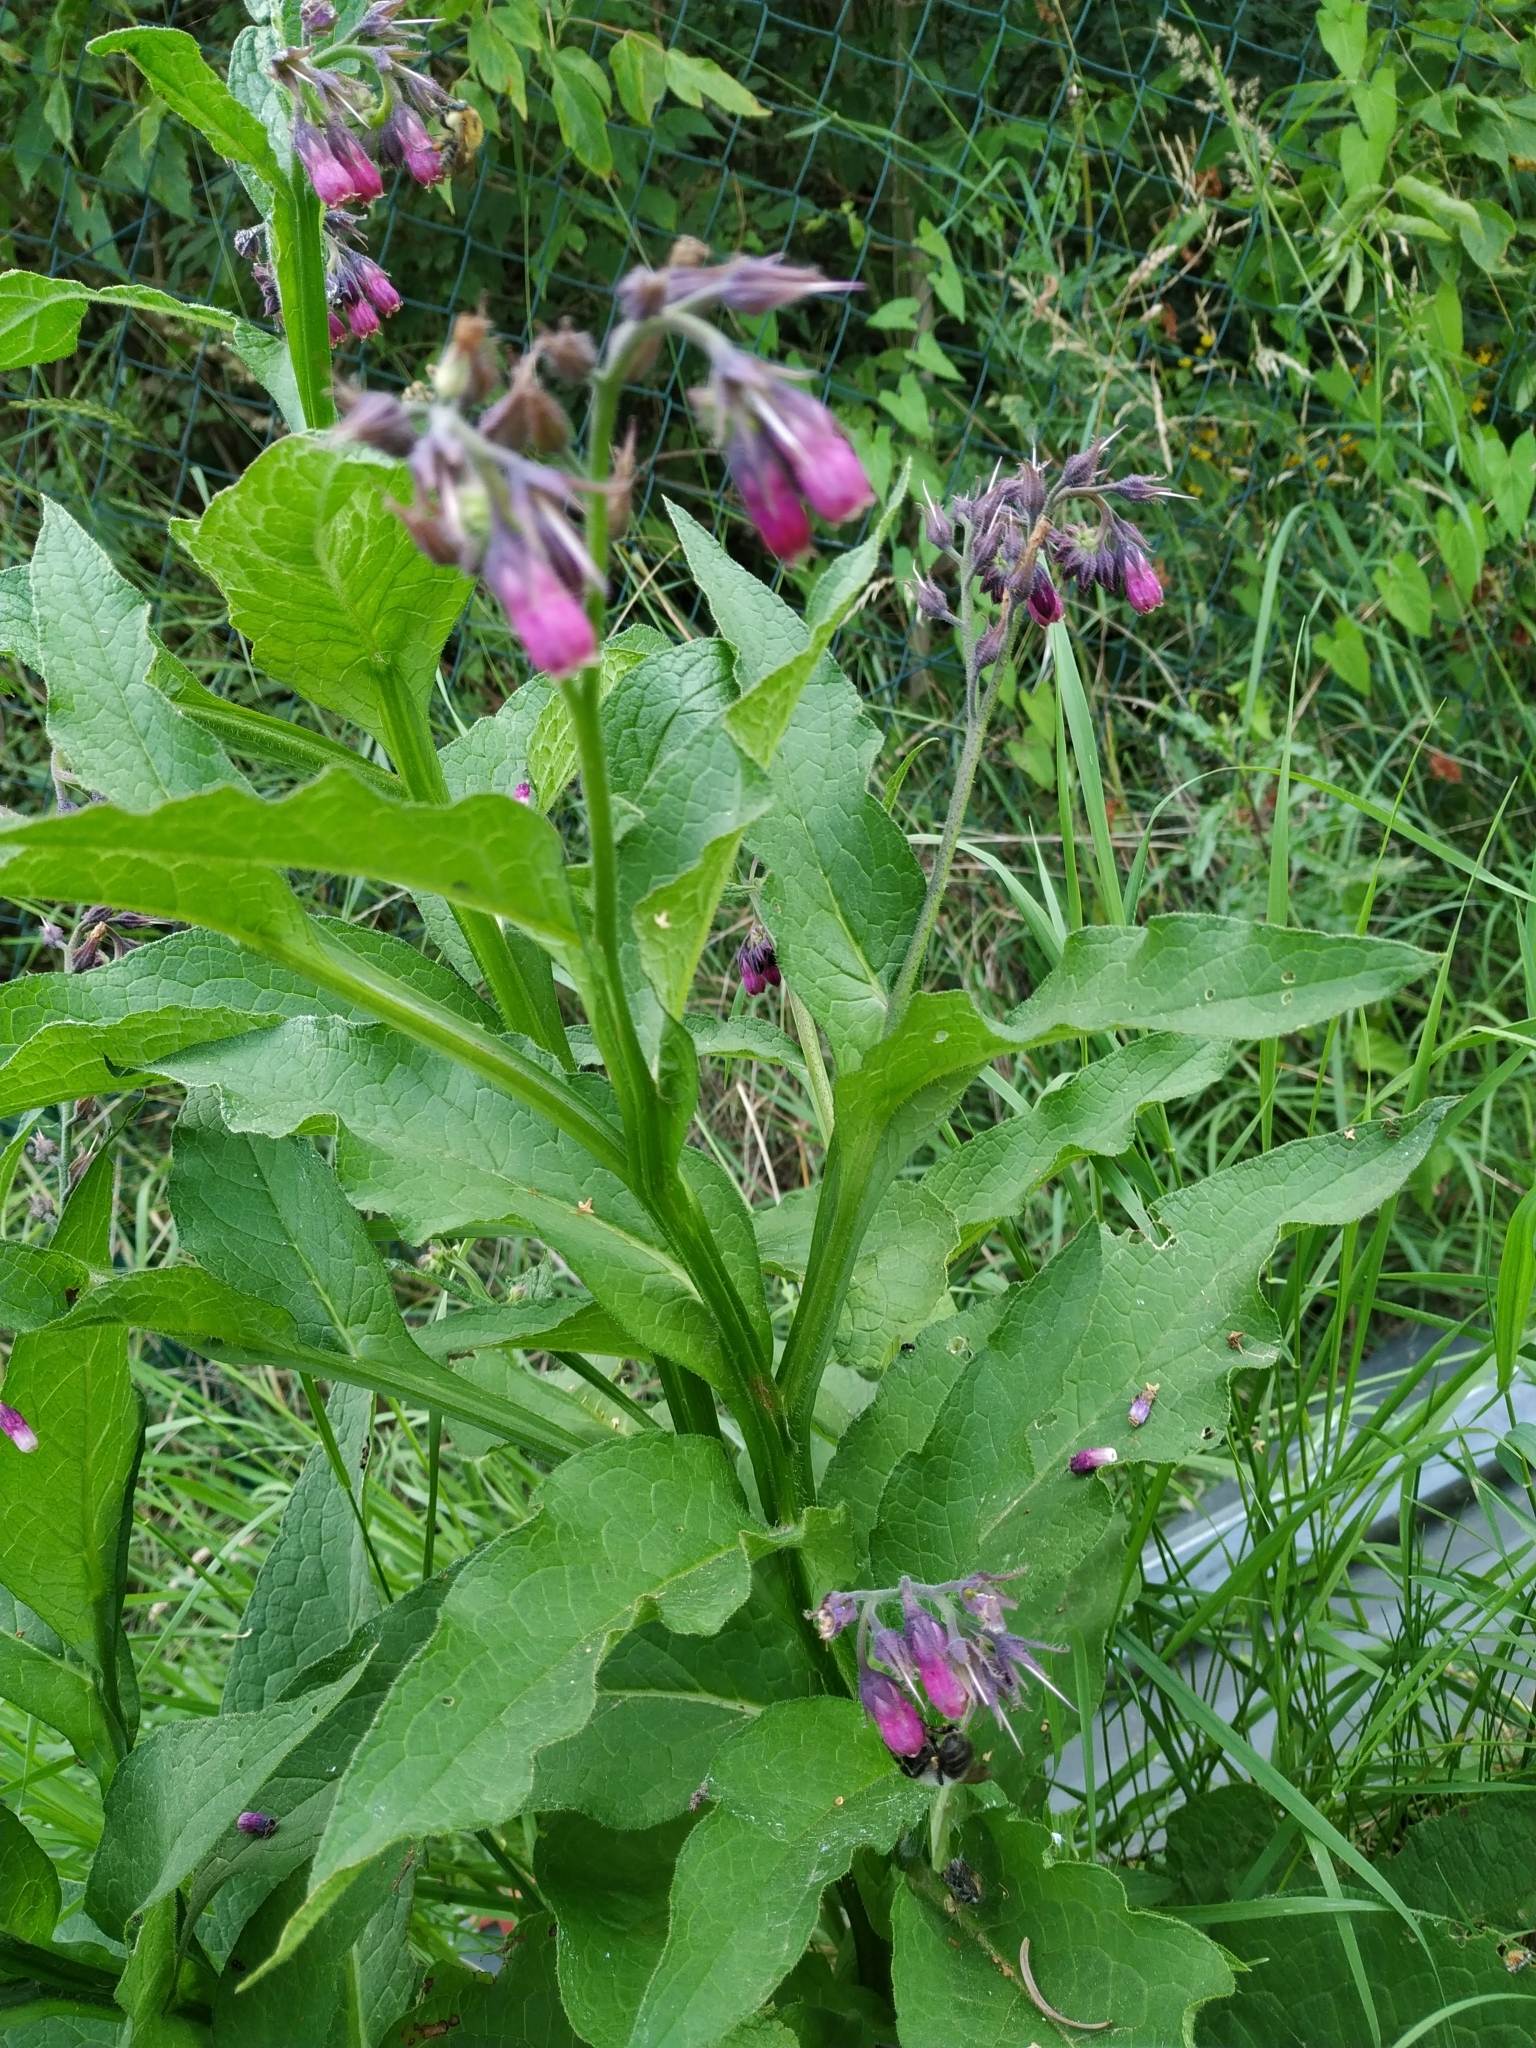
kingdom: Plantae
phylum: Tracheophyta
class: Magnoliopsida
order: Boraginales
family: Boraginaceae
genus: Symphytum
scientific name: Symphytum officinale
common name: Common comfrey
